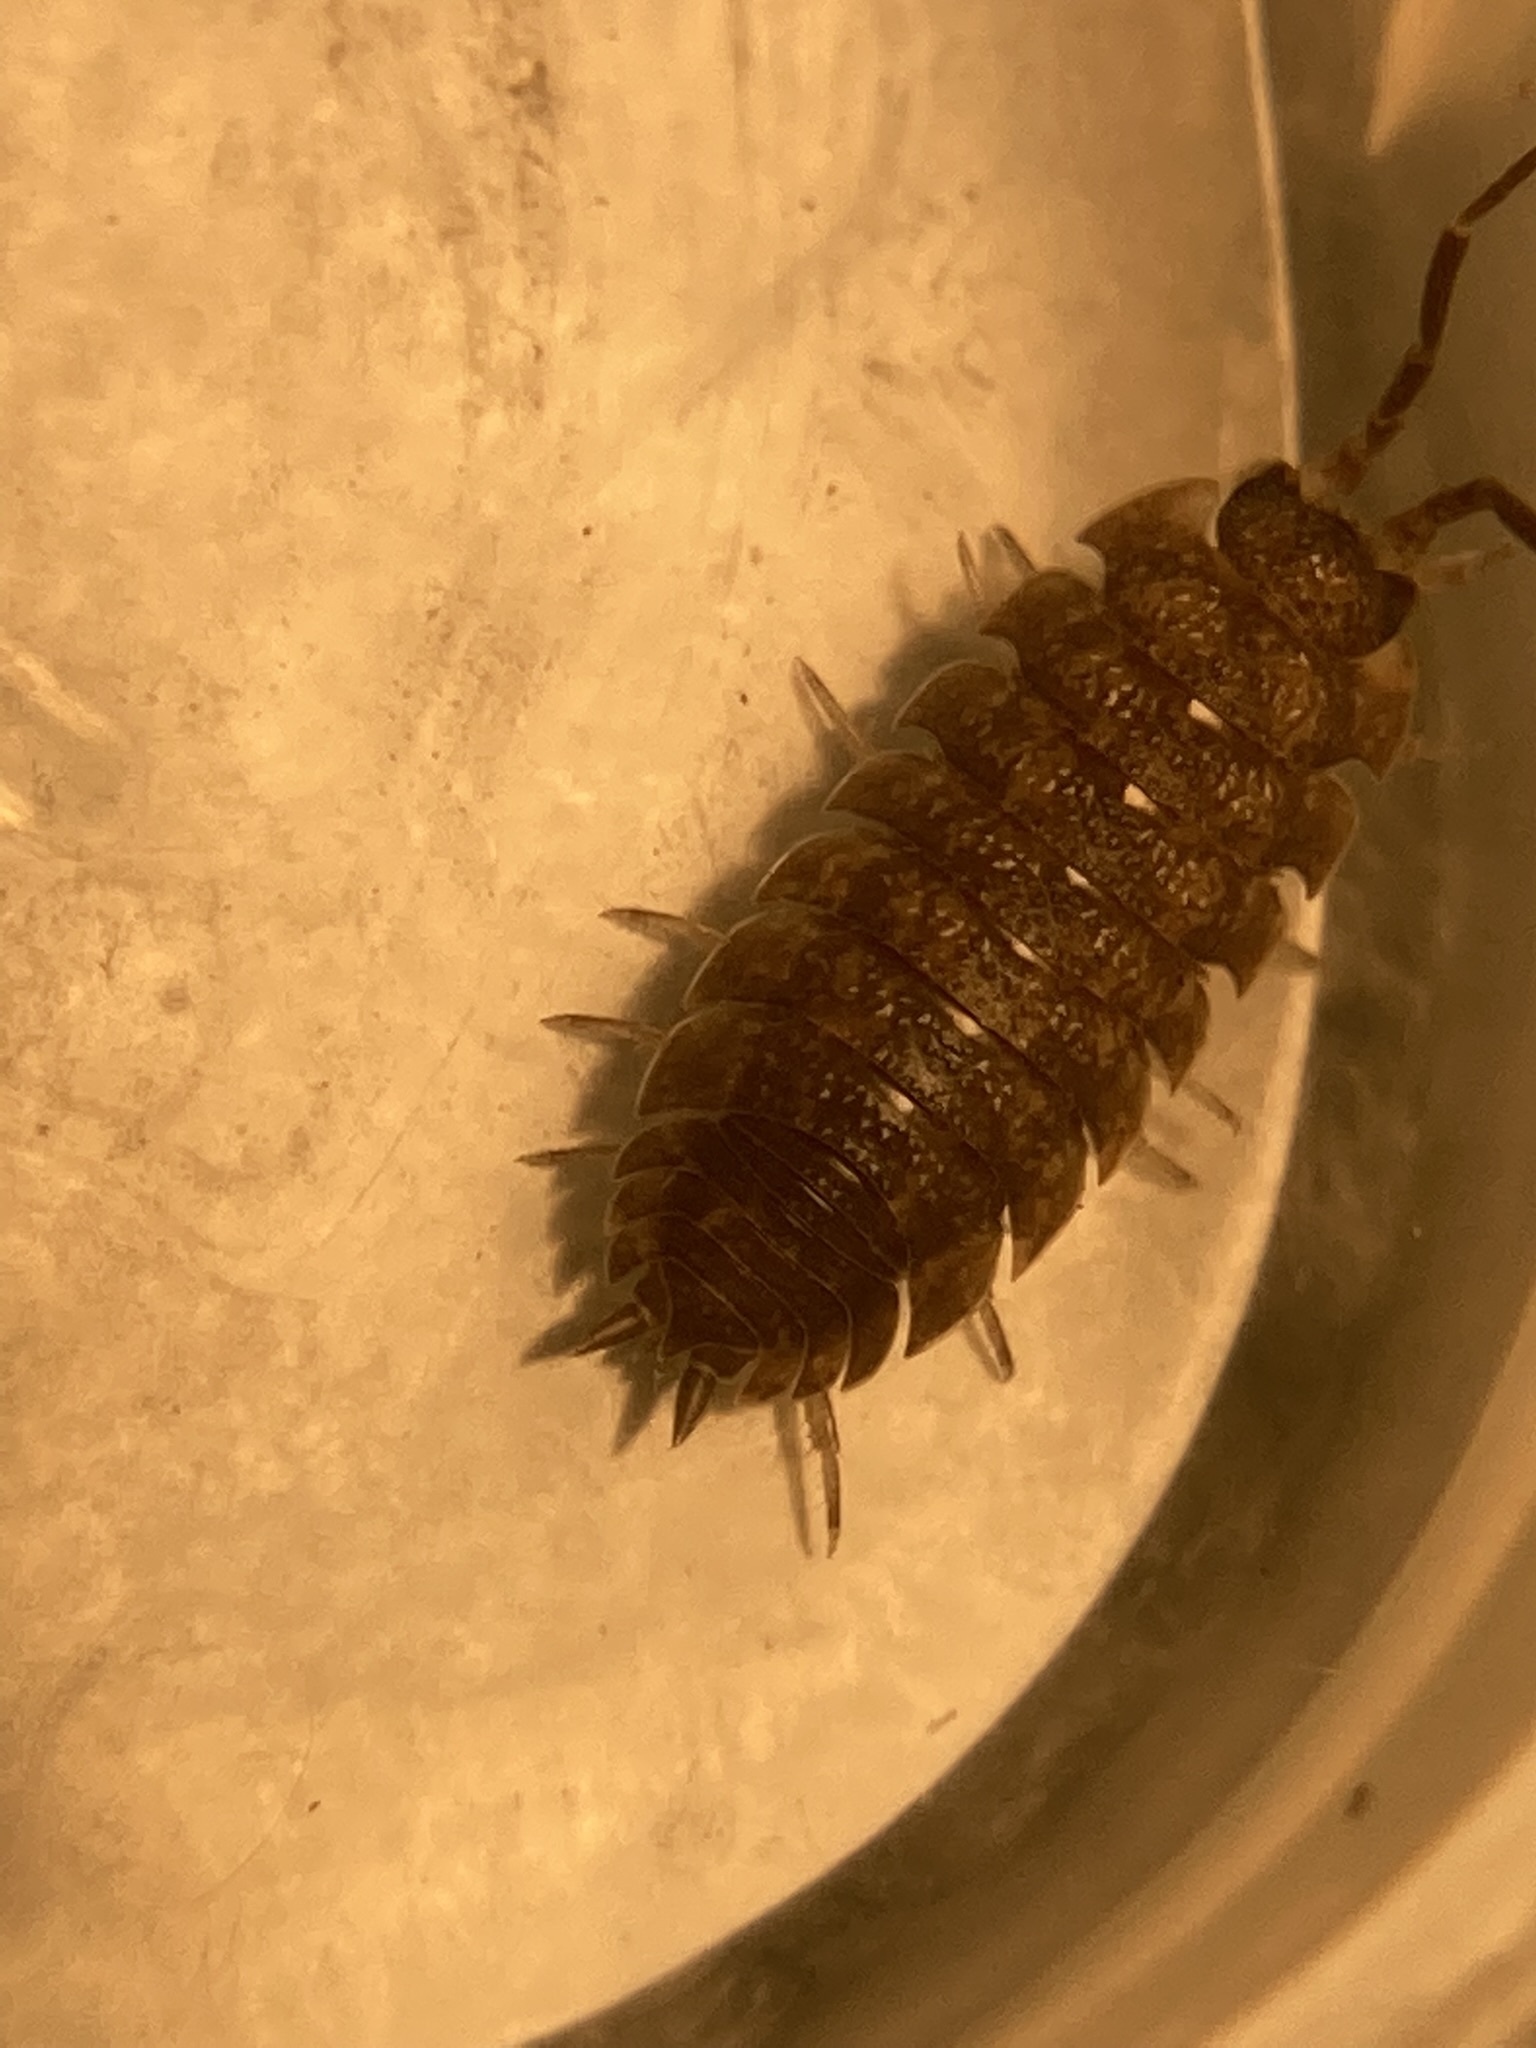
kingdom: Animalia
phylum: Arthropoda
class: Malacostraca
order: Isopoda
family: Porcellionidae
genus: Porcellio
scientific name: Porcellio scaber
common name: Common rough woodlouse
